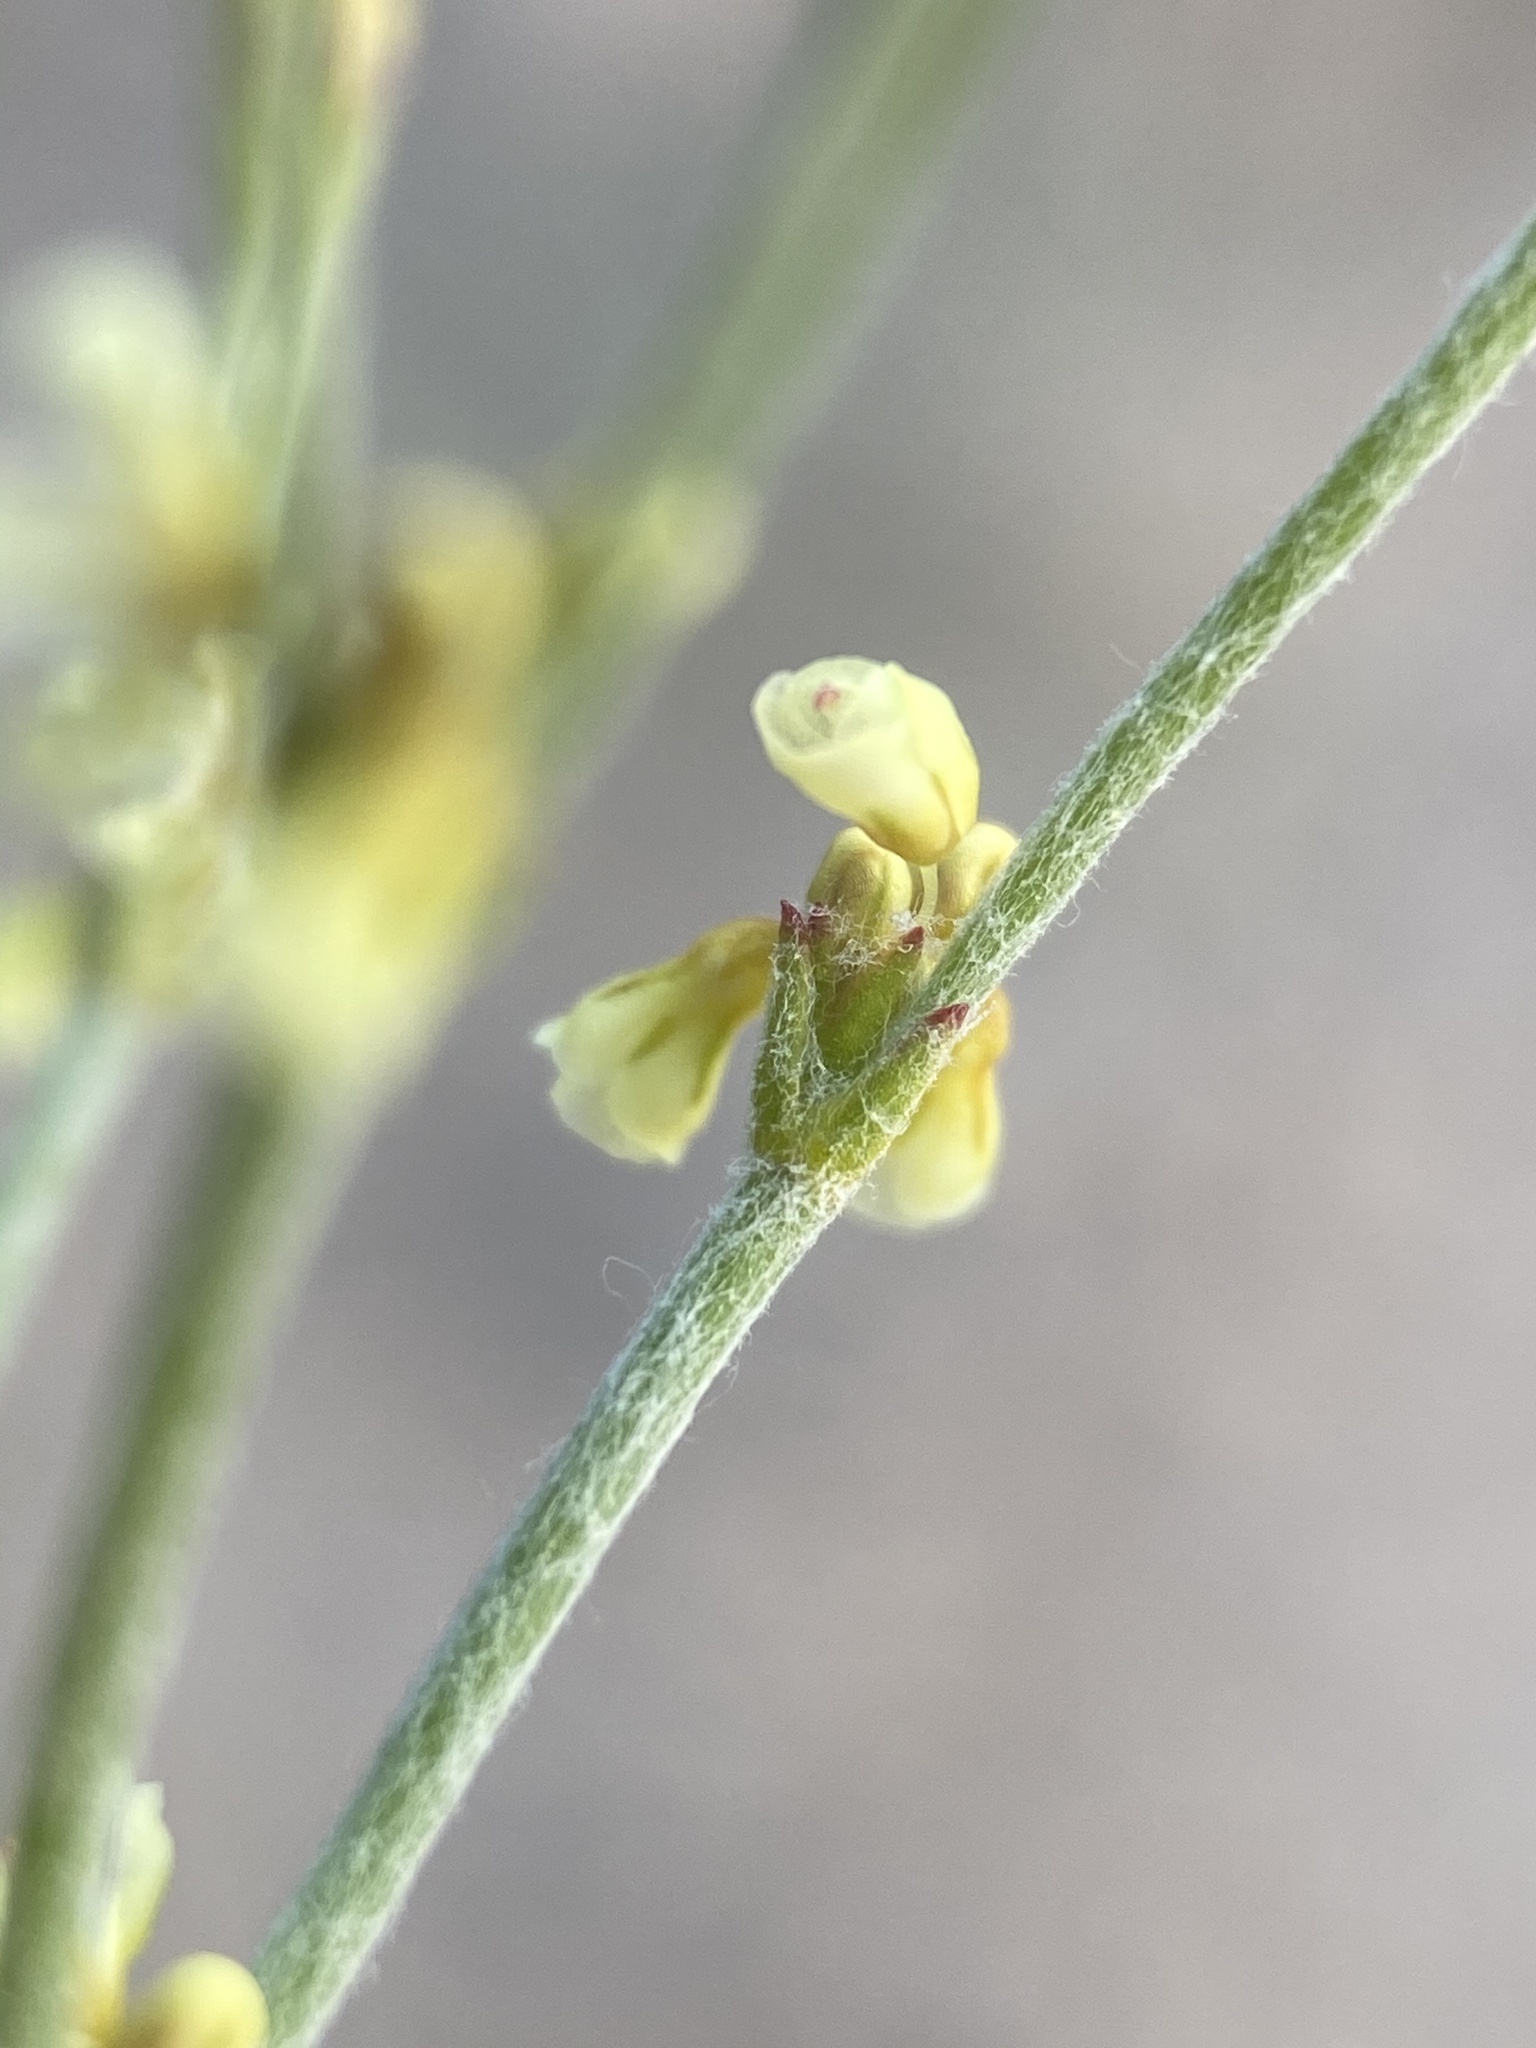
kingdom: Plantae
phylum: Tracheophyta
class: Magnoliopsida
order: Caryophyllales
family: Polygonaceae
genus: Eriogonum
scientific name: Eriogonum nidularium
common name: Bird's-nest wild buckwheat
